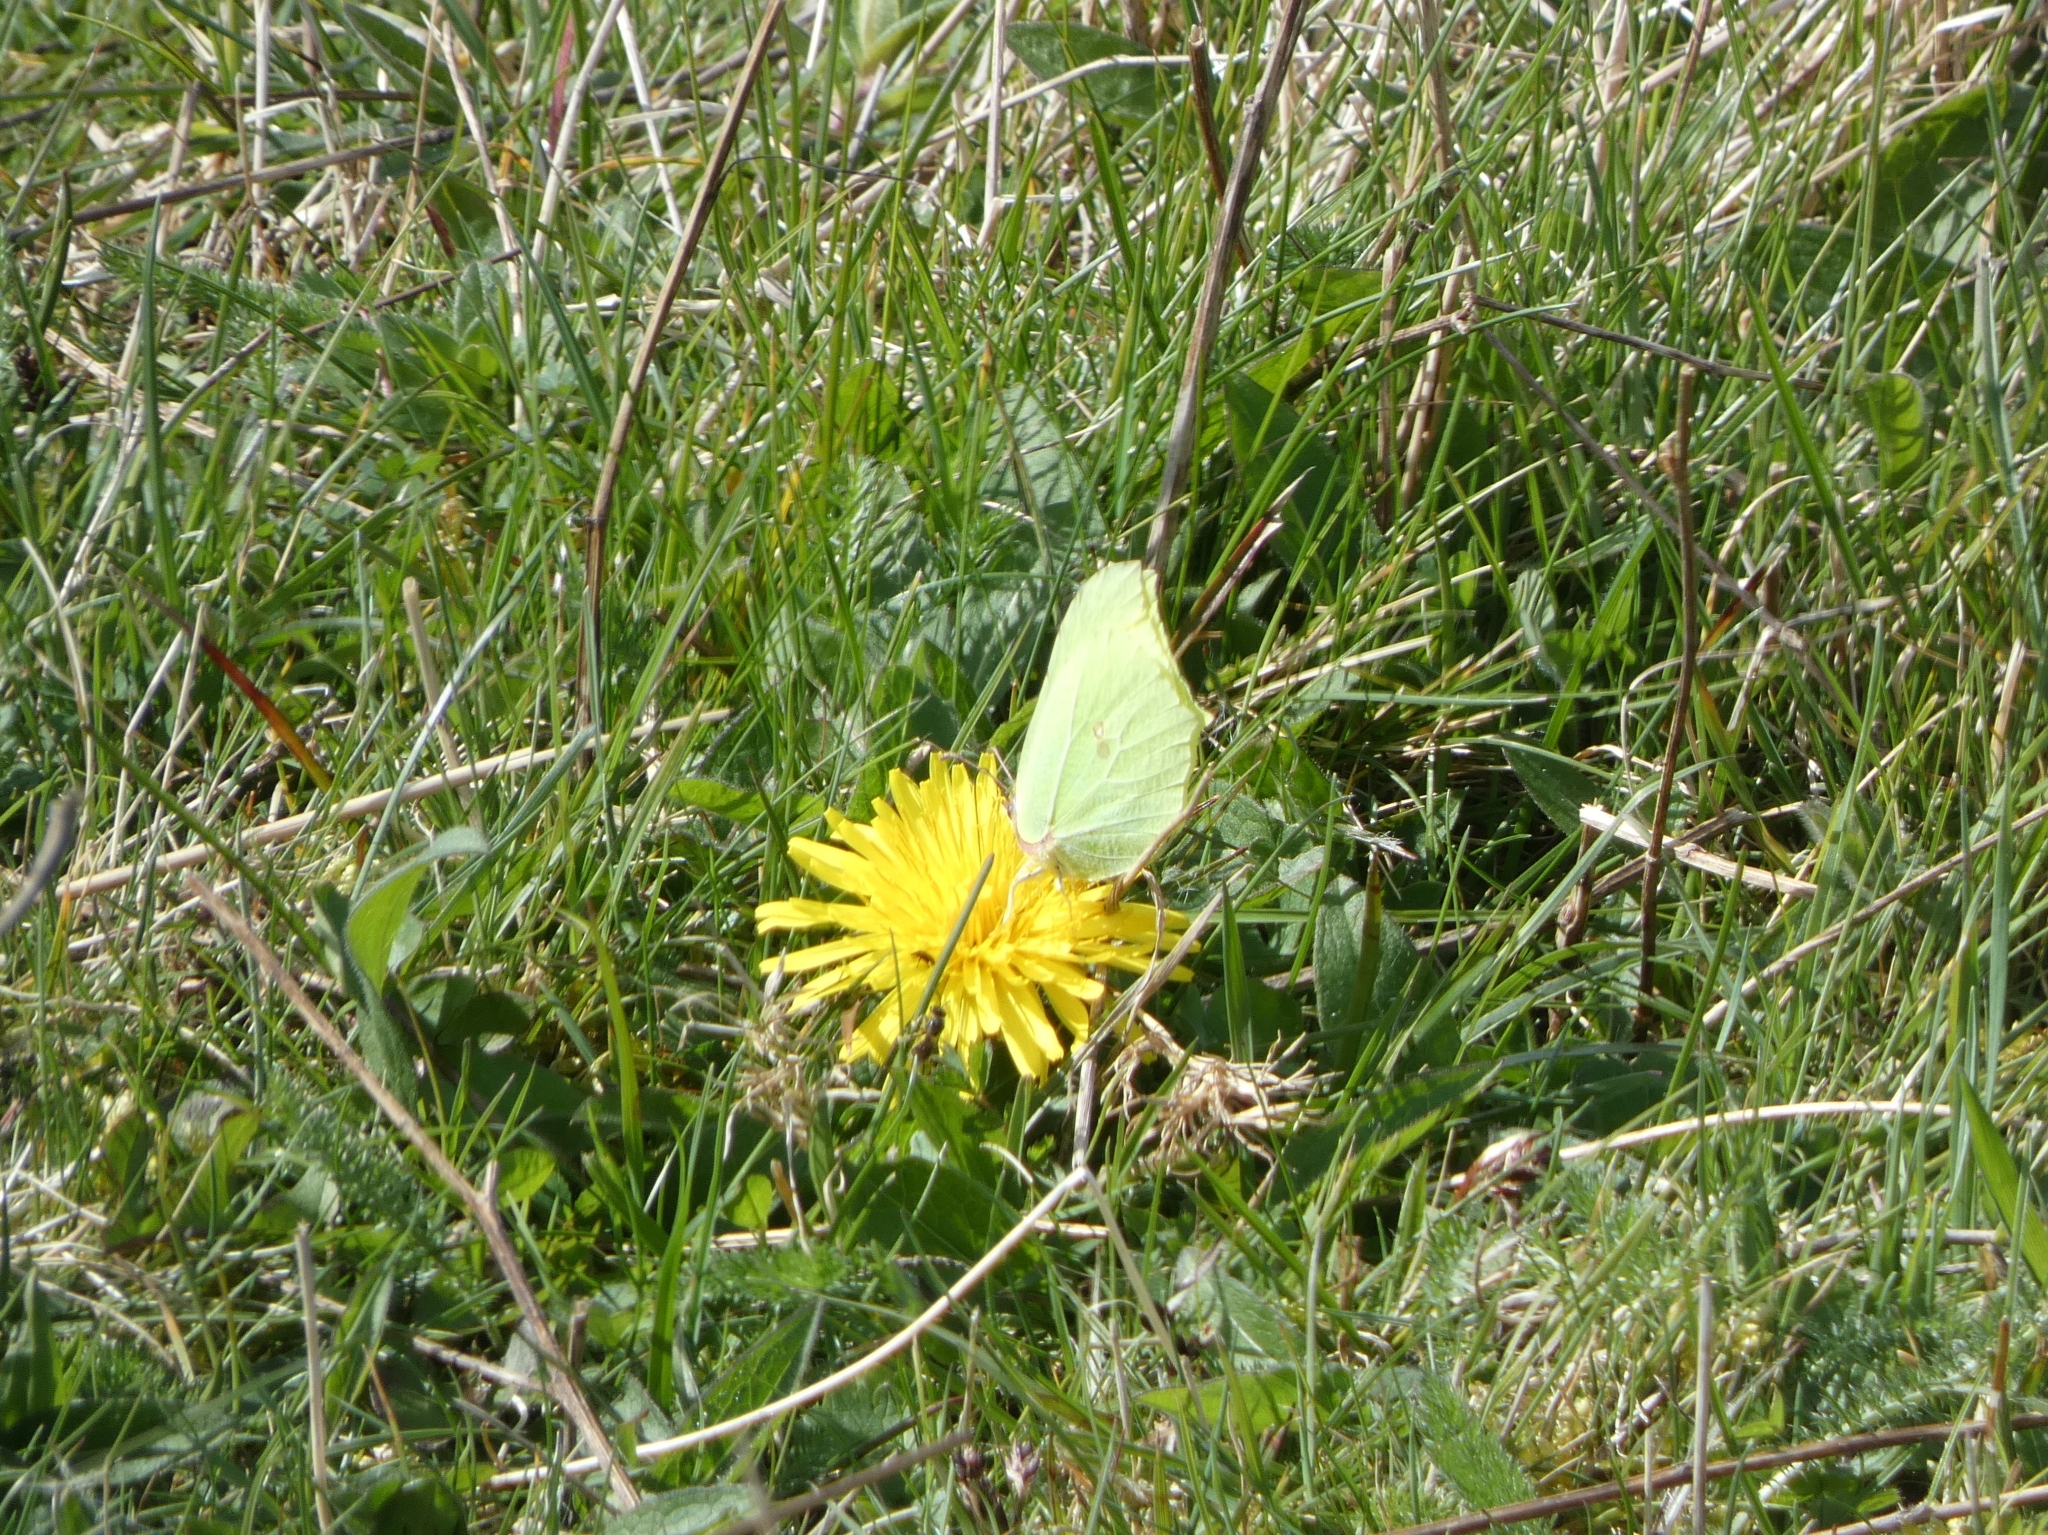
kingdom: Animalia
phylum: Arthropoda
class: Insecta
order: Lepidoptera
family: Pieridae
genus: Gonepteryx
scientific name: Gonepteryx rhamni
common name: Brimstone
